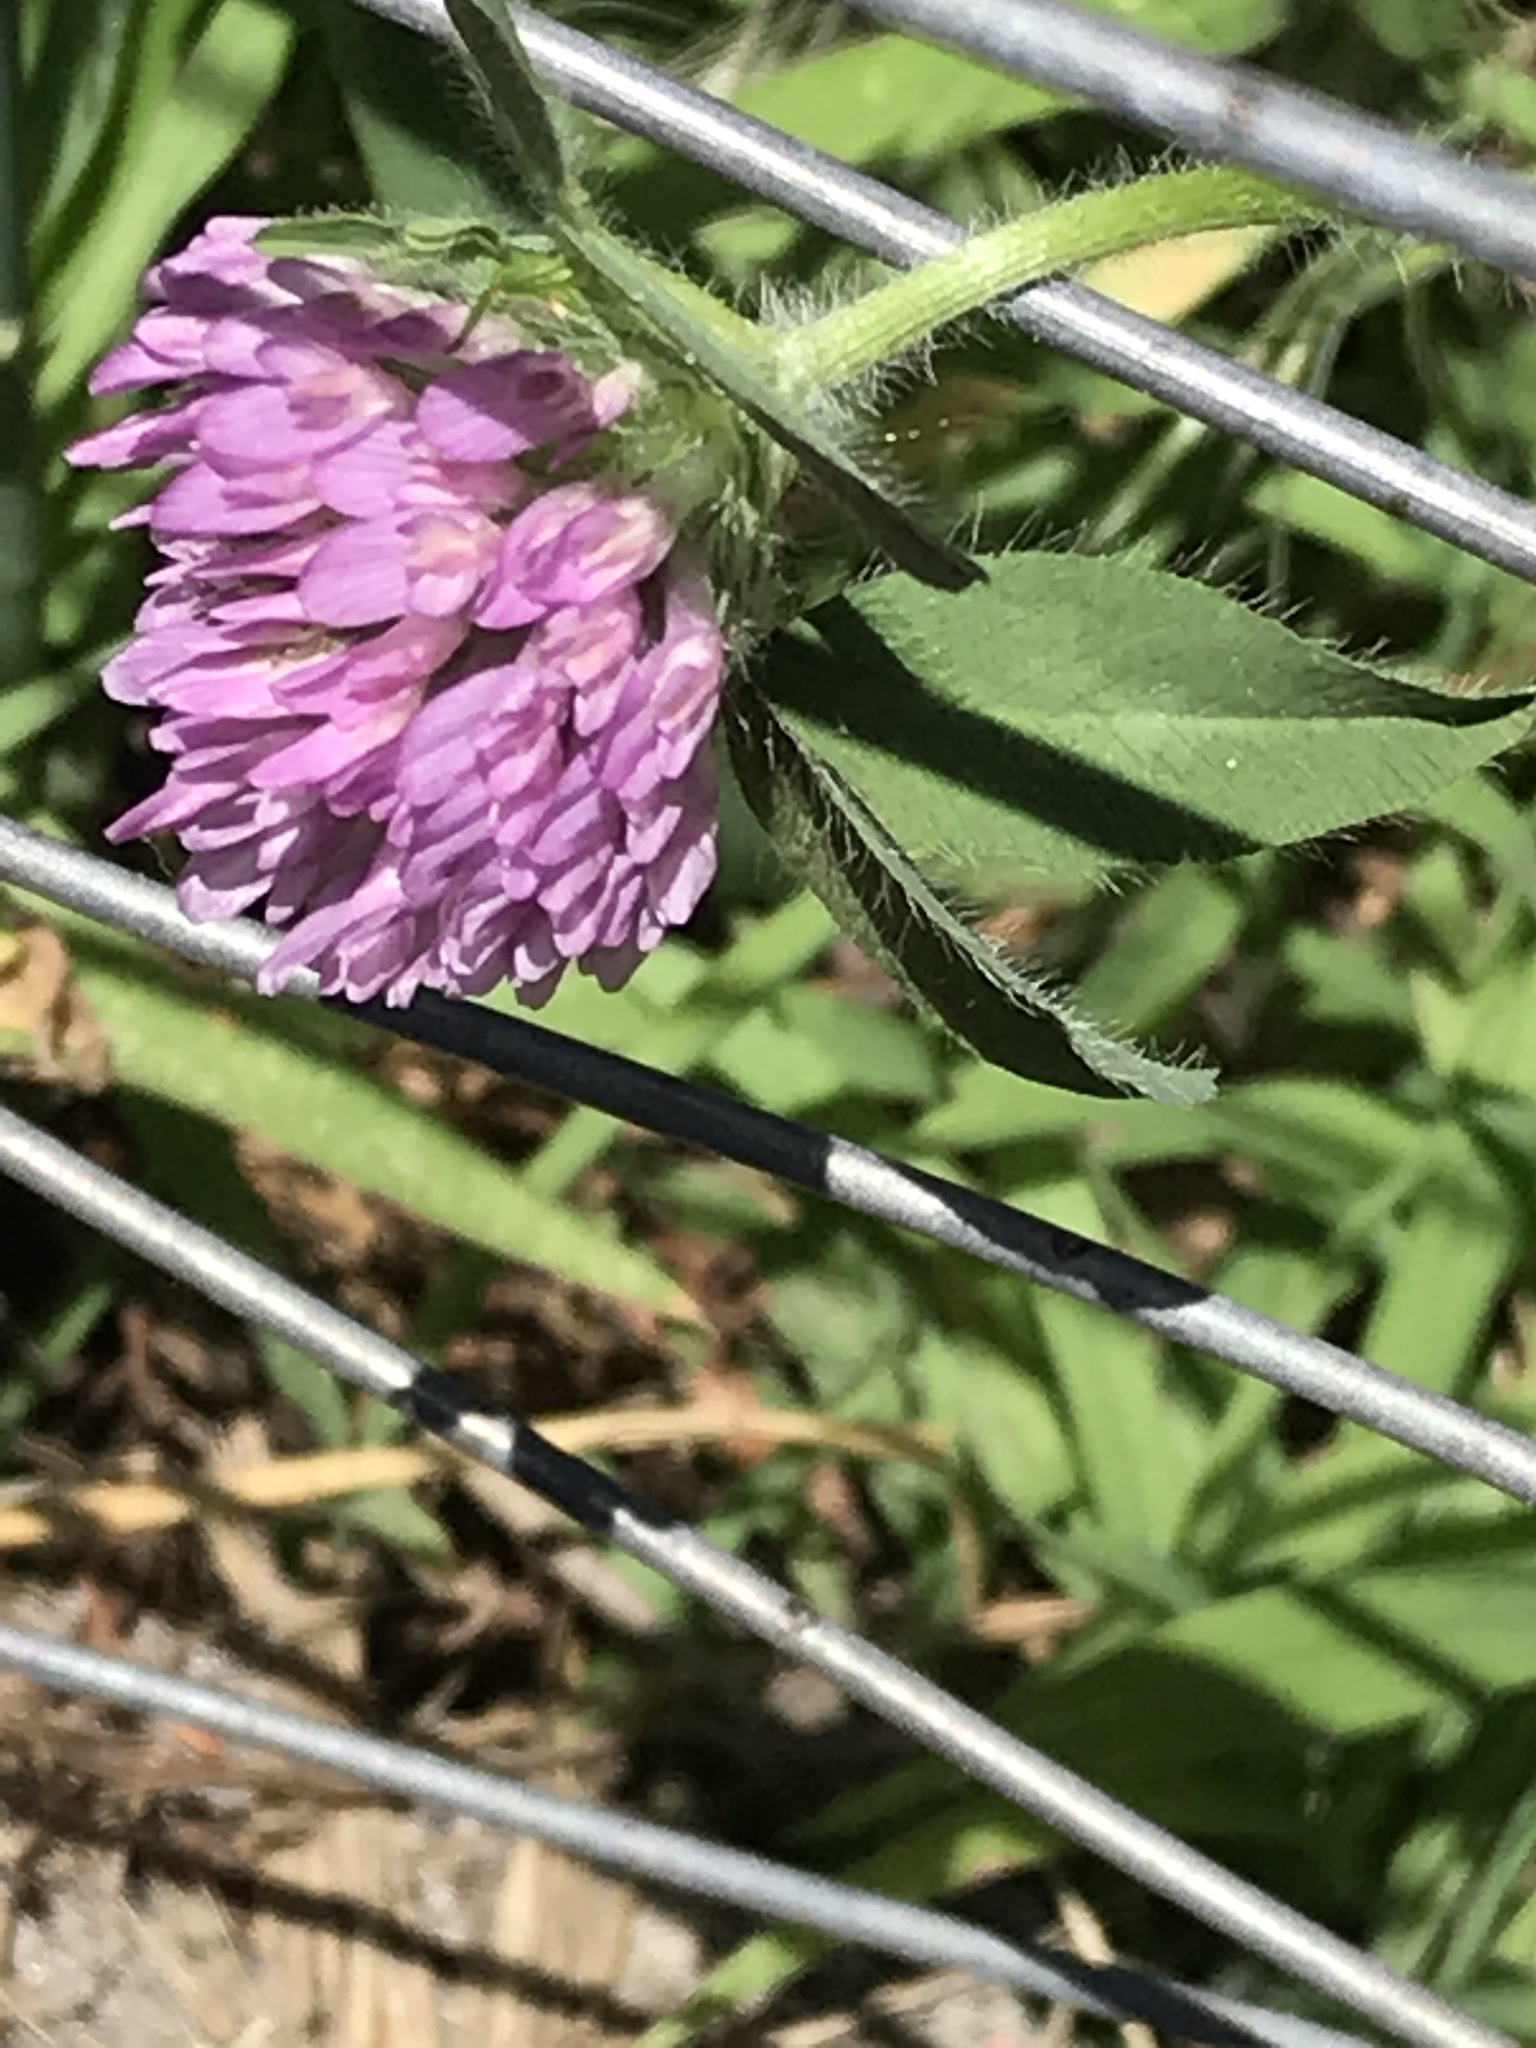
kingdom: Plantae
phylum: Tracheophyta
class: Magnoliopsida
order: Fabales
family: Fabaceae
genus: Trifolium
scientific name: Trifolium pratense
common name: Red clover
